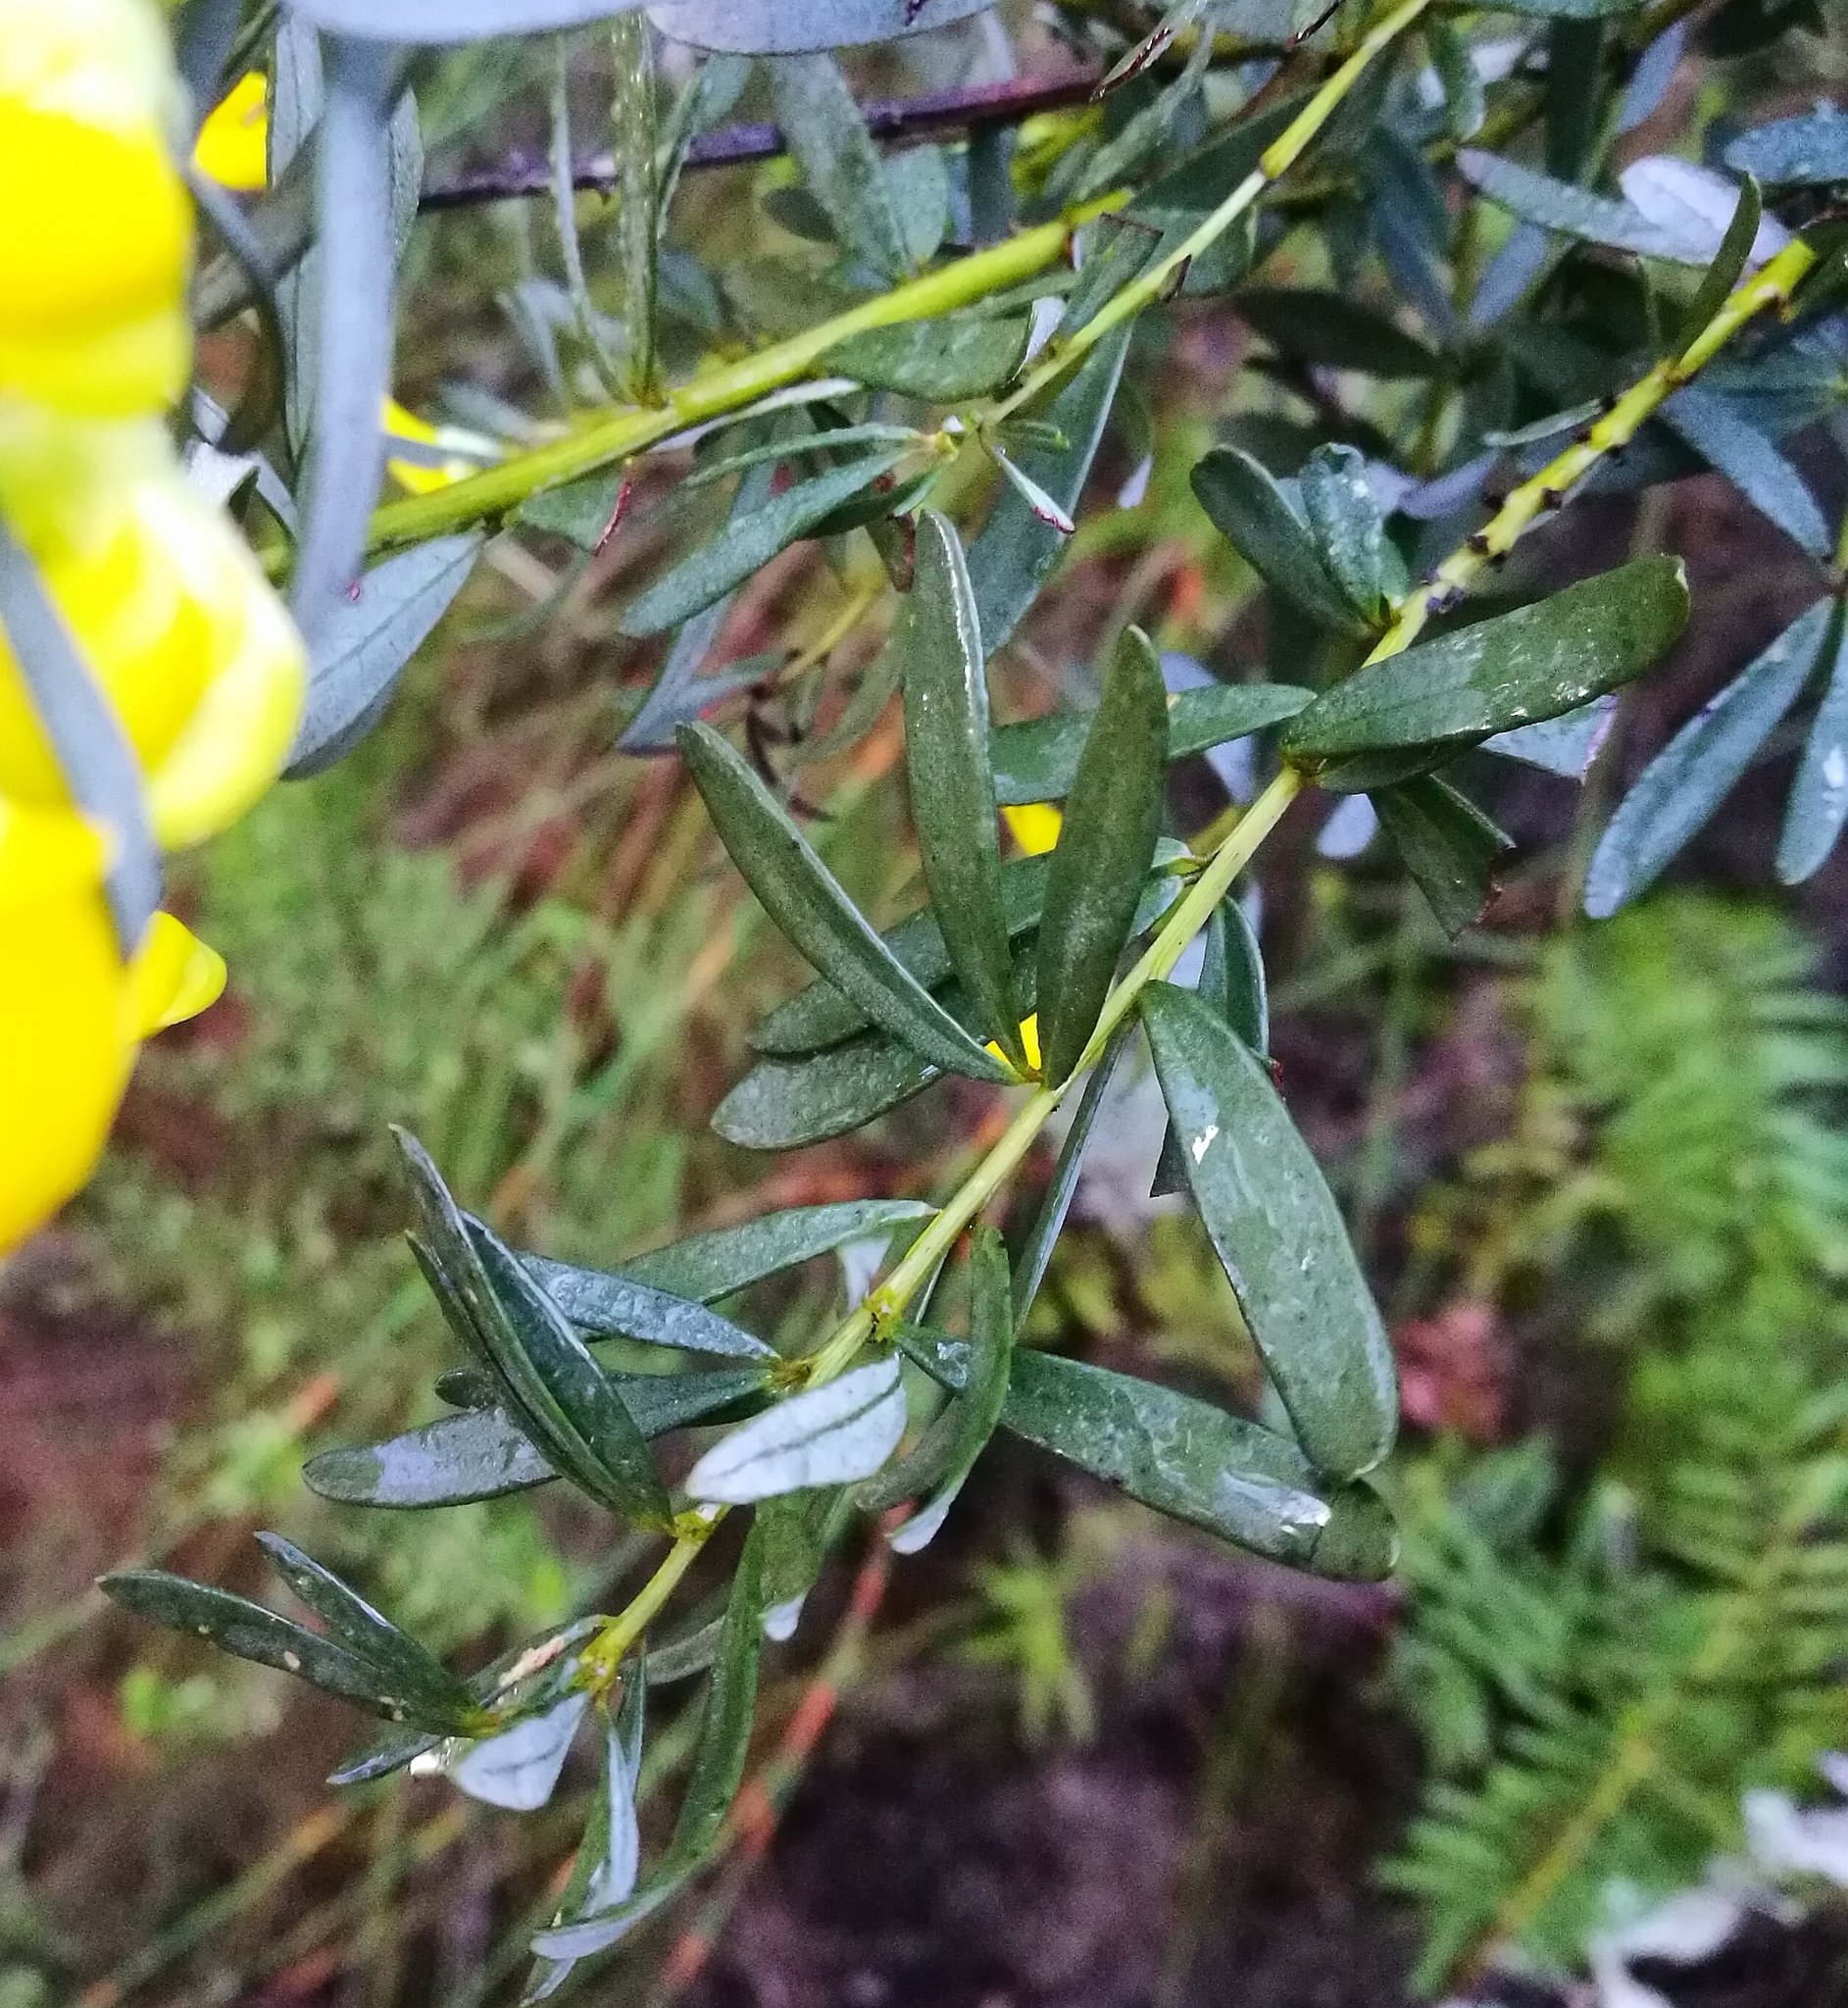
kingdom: Plantae
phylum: Tracheophyta
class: Magnoliopsida
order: Fabales
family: Fabaceae
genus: Cyclopia
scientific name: Cyclopia subternata
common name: Honeybush tea
